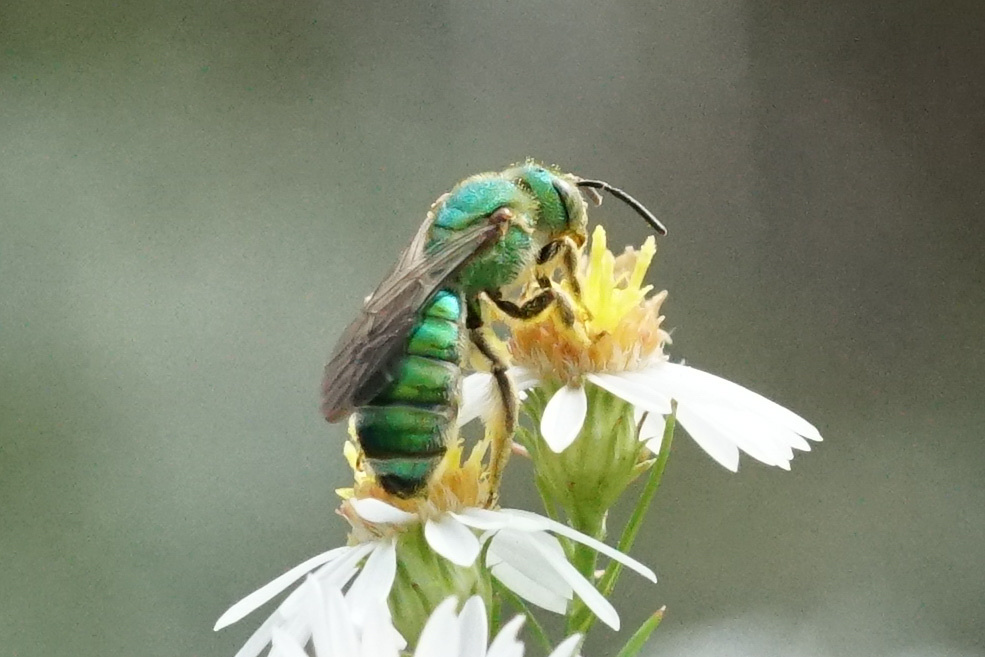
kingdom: Animalia
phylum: Arthropoda
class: Insecta
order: Hymenoptera
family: Halictidae
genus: Agapostemon
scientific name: Agapostemon sericeus
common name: Silky striped sweat bee
